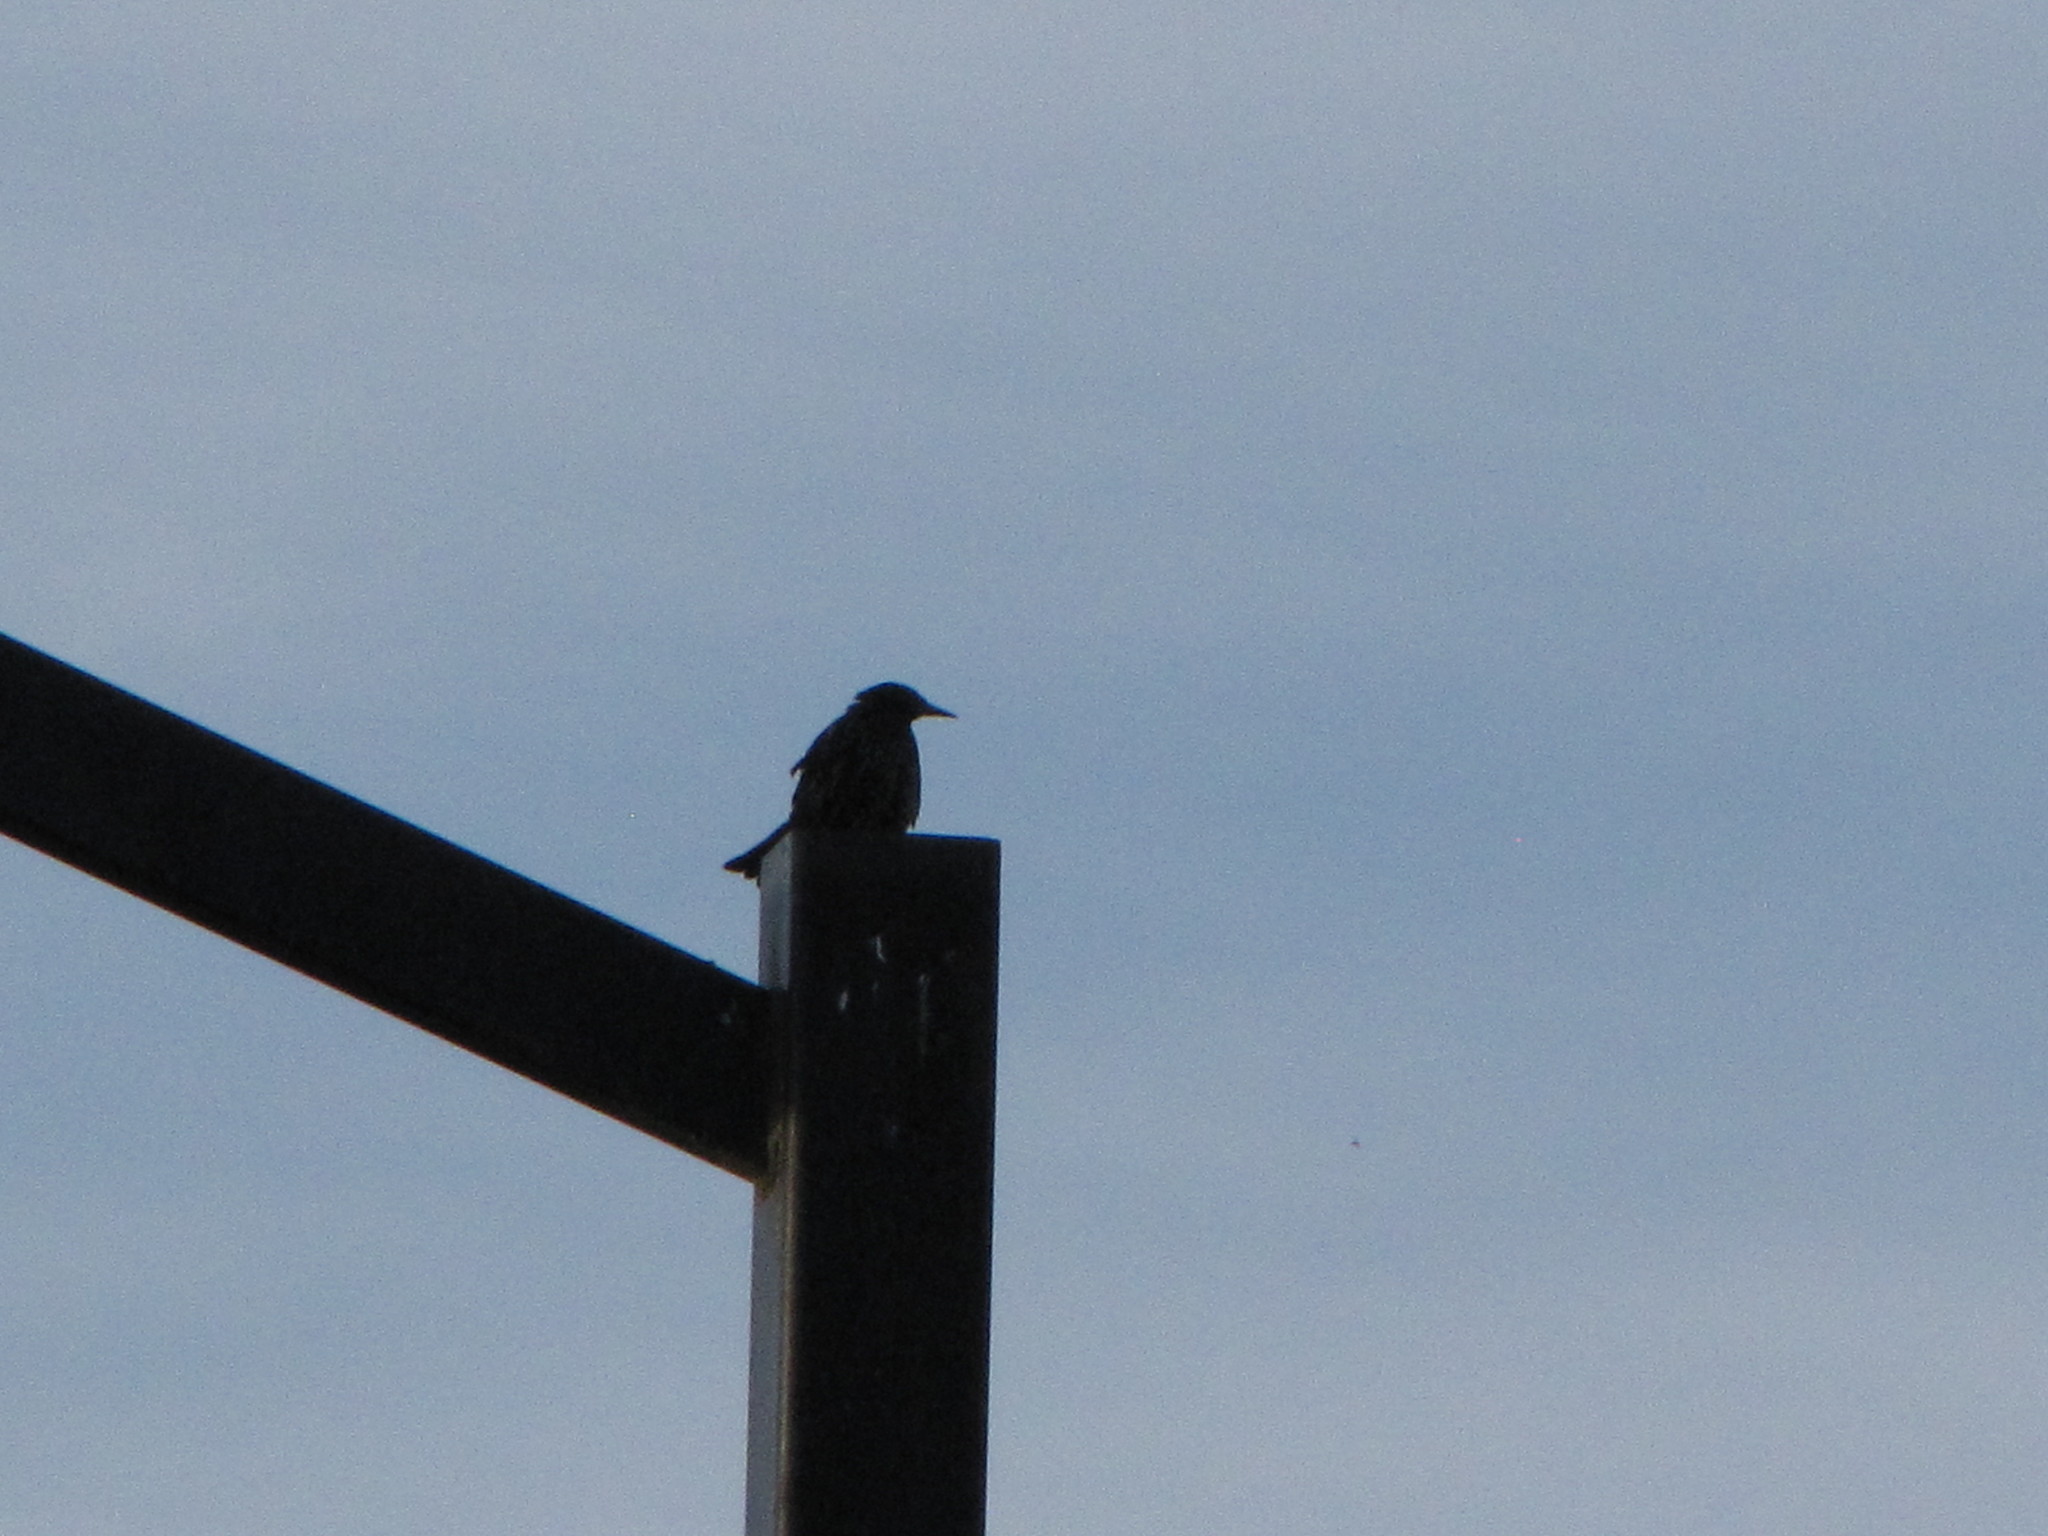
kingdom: Animalia
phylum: Chordata
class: Aves
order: Passeriformes
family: Sturnidae
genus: Sturnus
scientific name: Sturnus vulgaris
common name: Common starling
